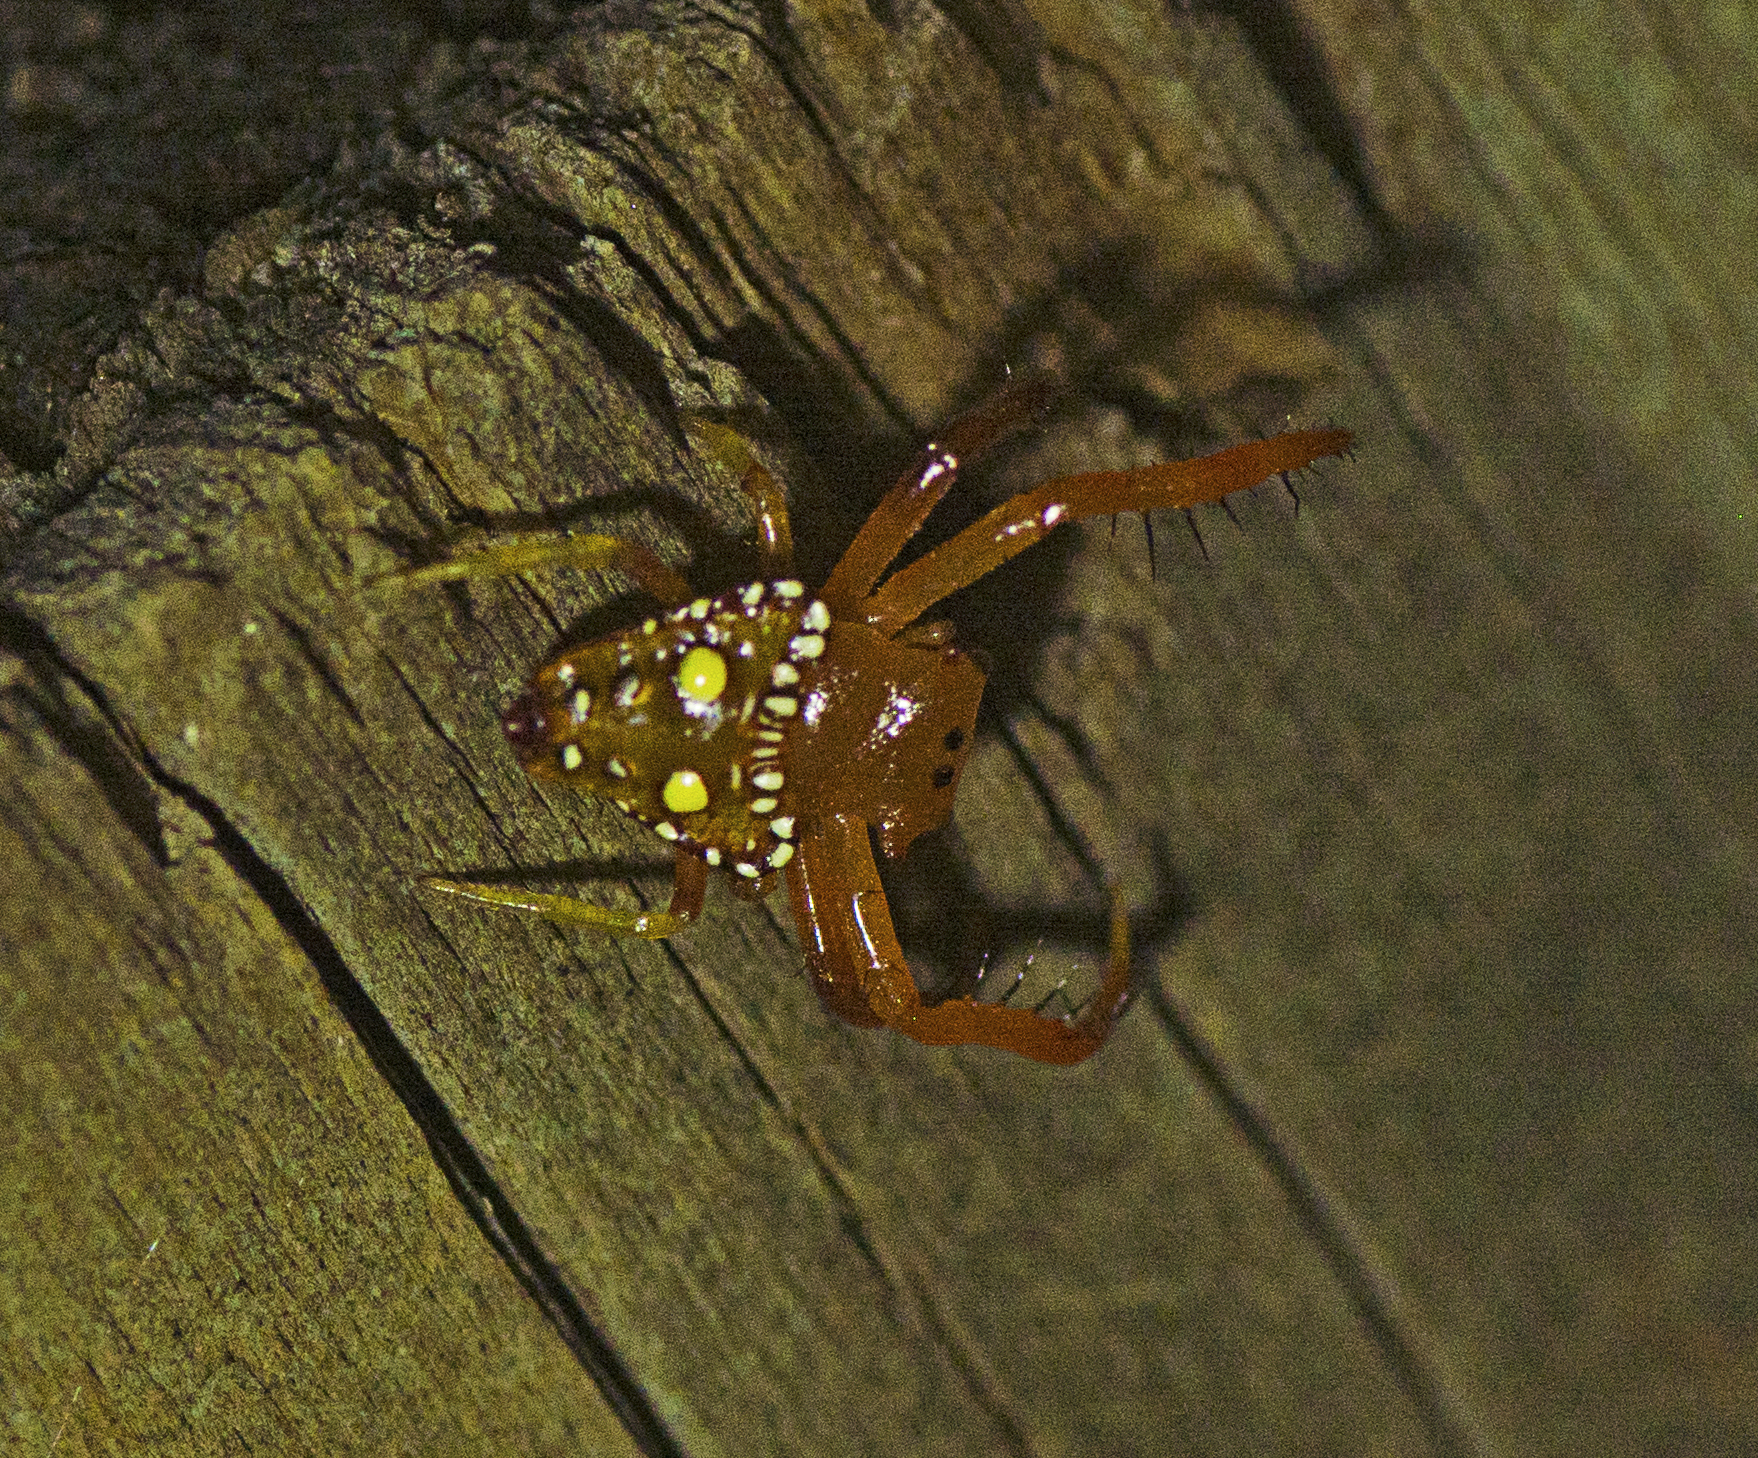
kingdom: Animalia
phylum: Arthropoda
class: Arachnida
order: Araneae
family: Arkyidae
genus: Arkys
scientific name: Arkys lancearius
